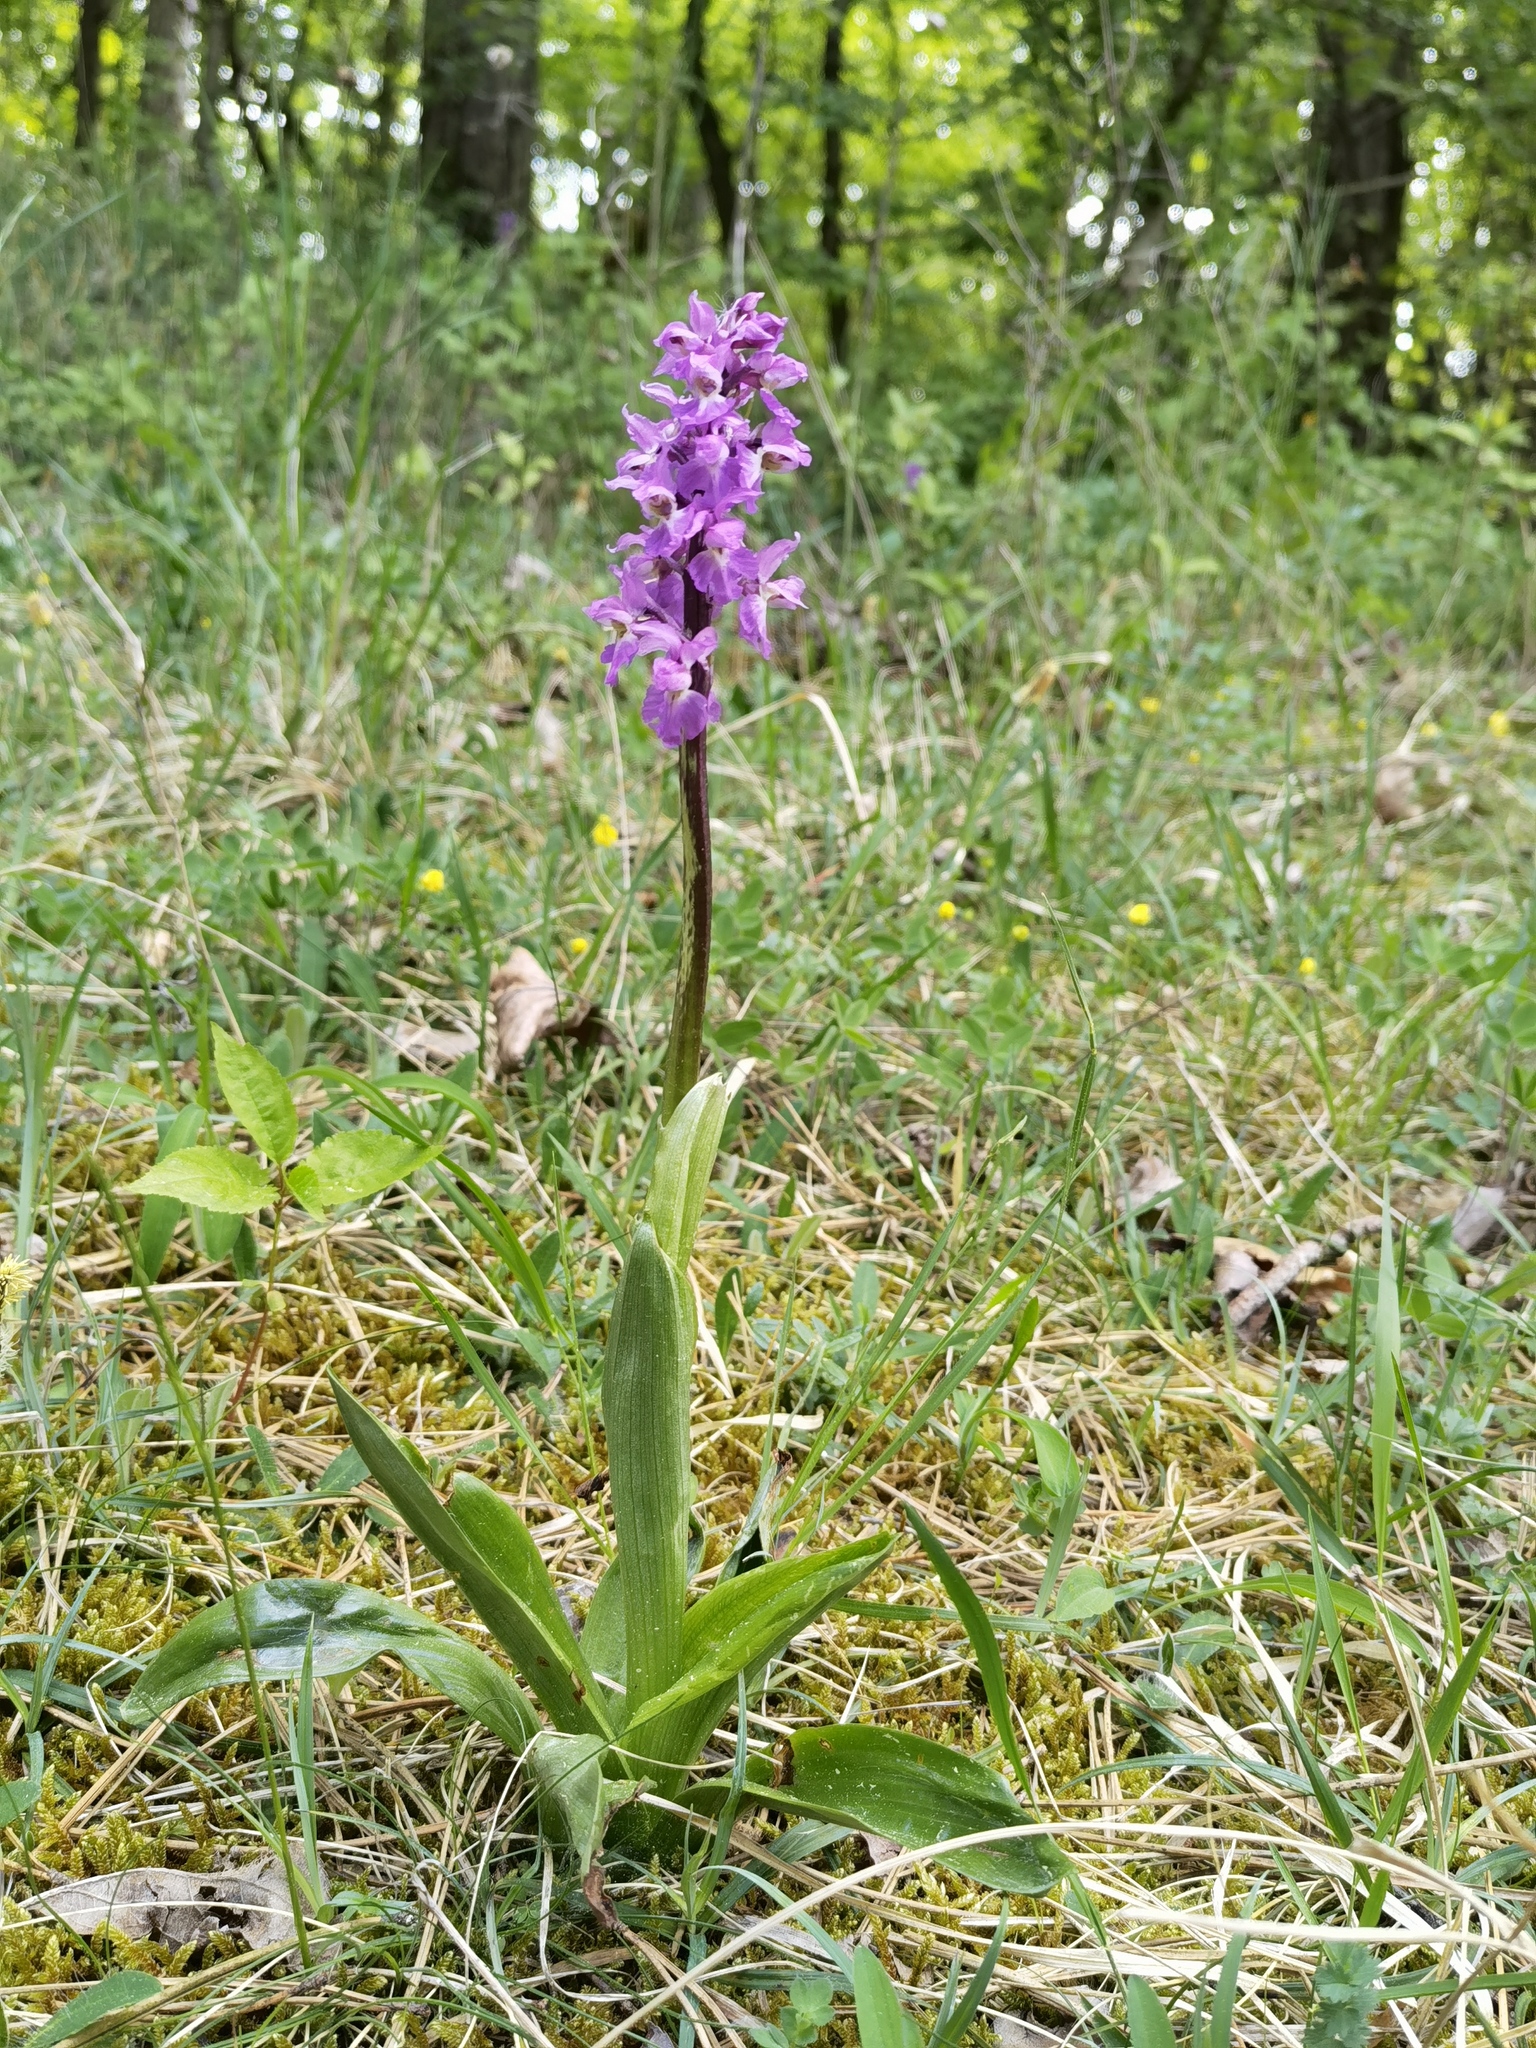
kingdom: Plantae
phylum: Tracheophyta
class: Liliopsida
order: Asparagales
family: Orchidaceae
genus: Orchis
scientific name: Orchis mascula
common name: Early-purple orchid
